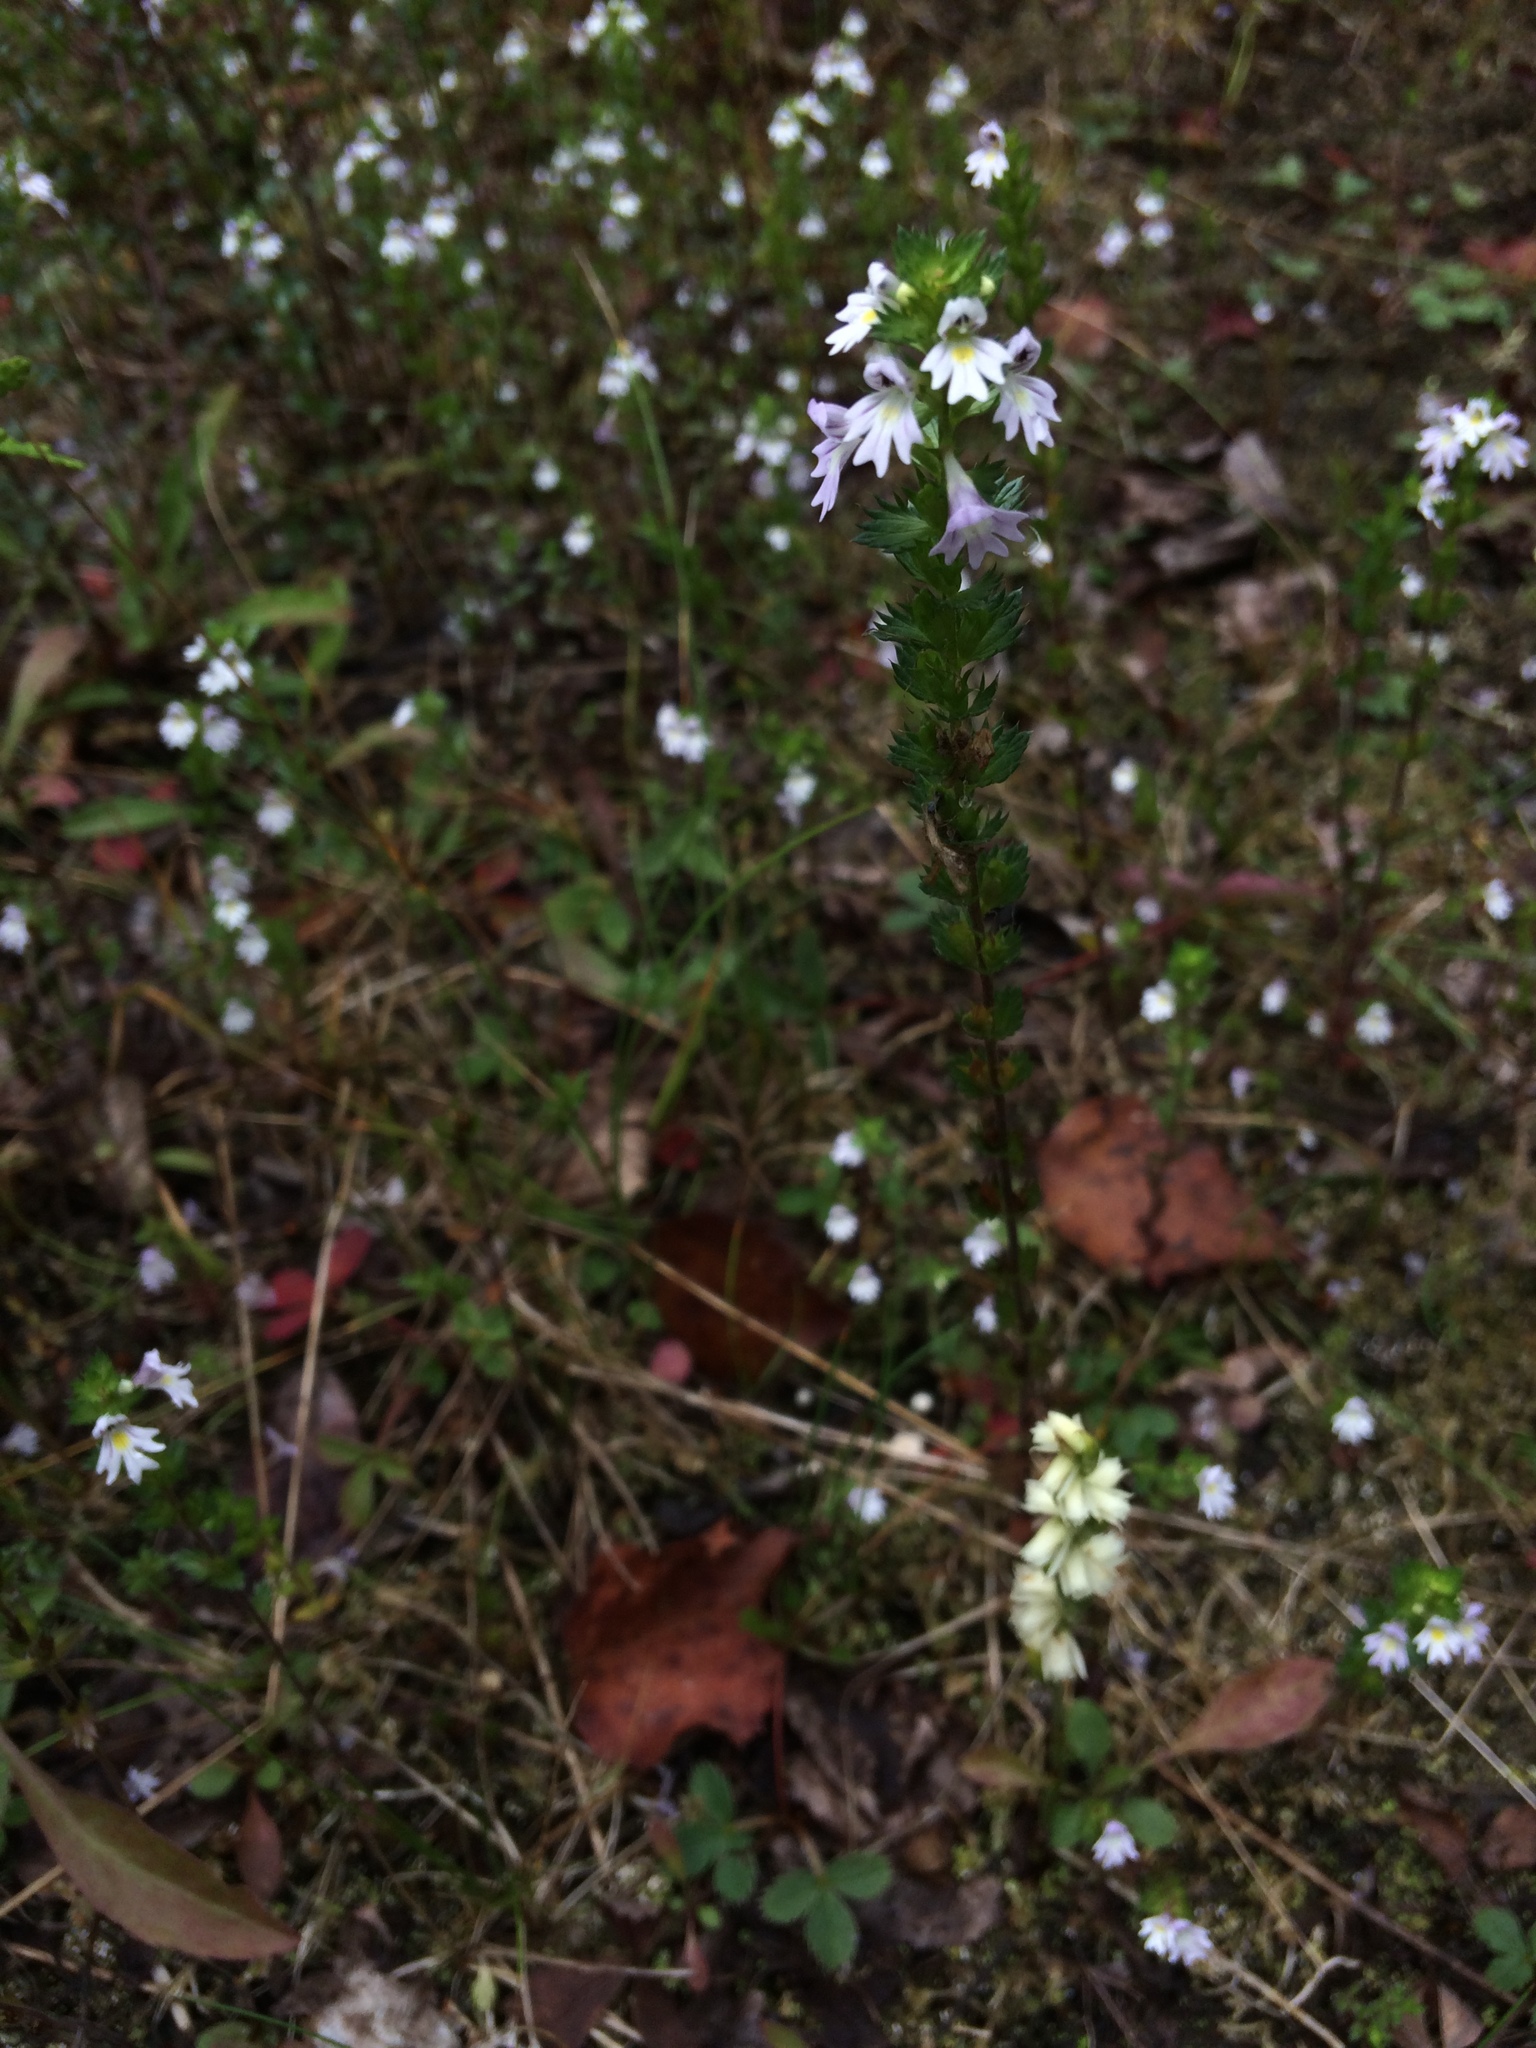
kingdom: Plantae
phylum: Tracheophyta
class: Magnoliopsida
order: Lamiales
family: Orobanchaceae
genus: Euphrasia
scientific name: Euphrasia nemorosa
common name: Common eyebright
